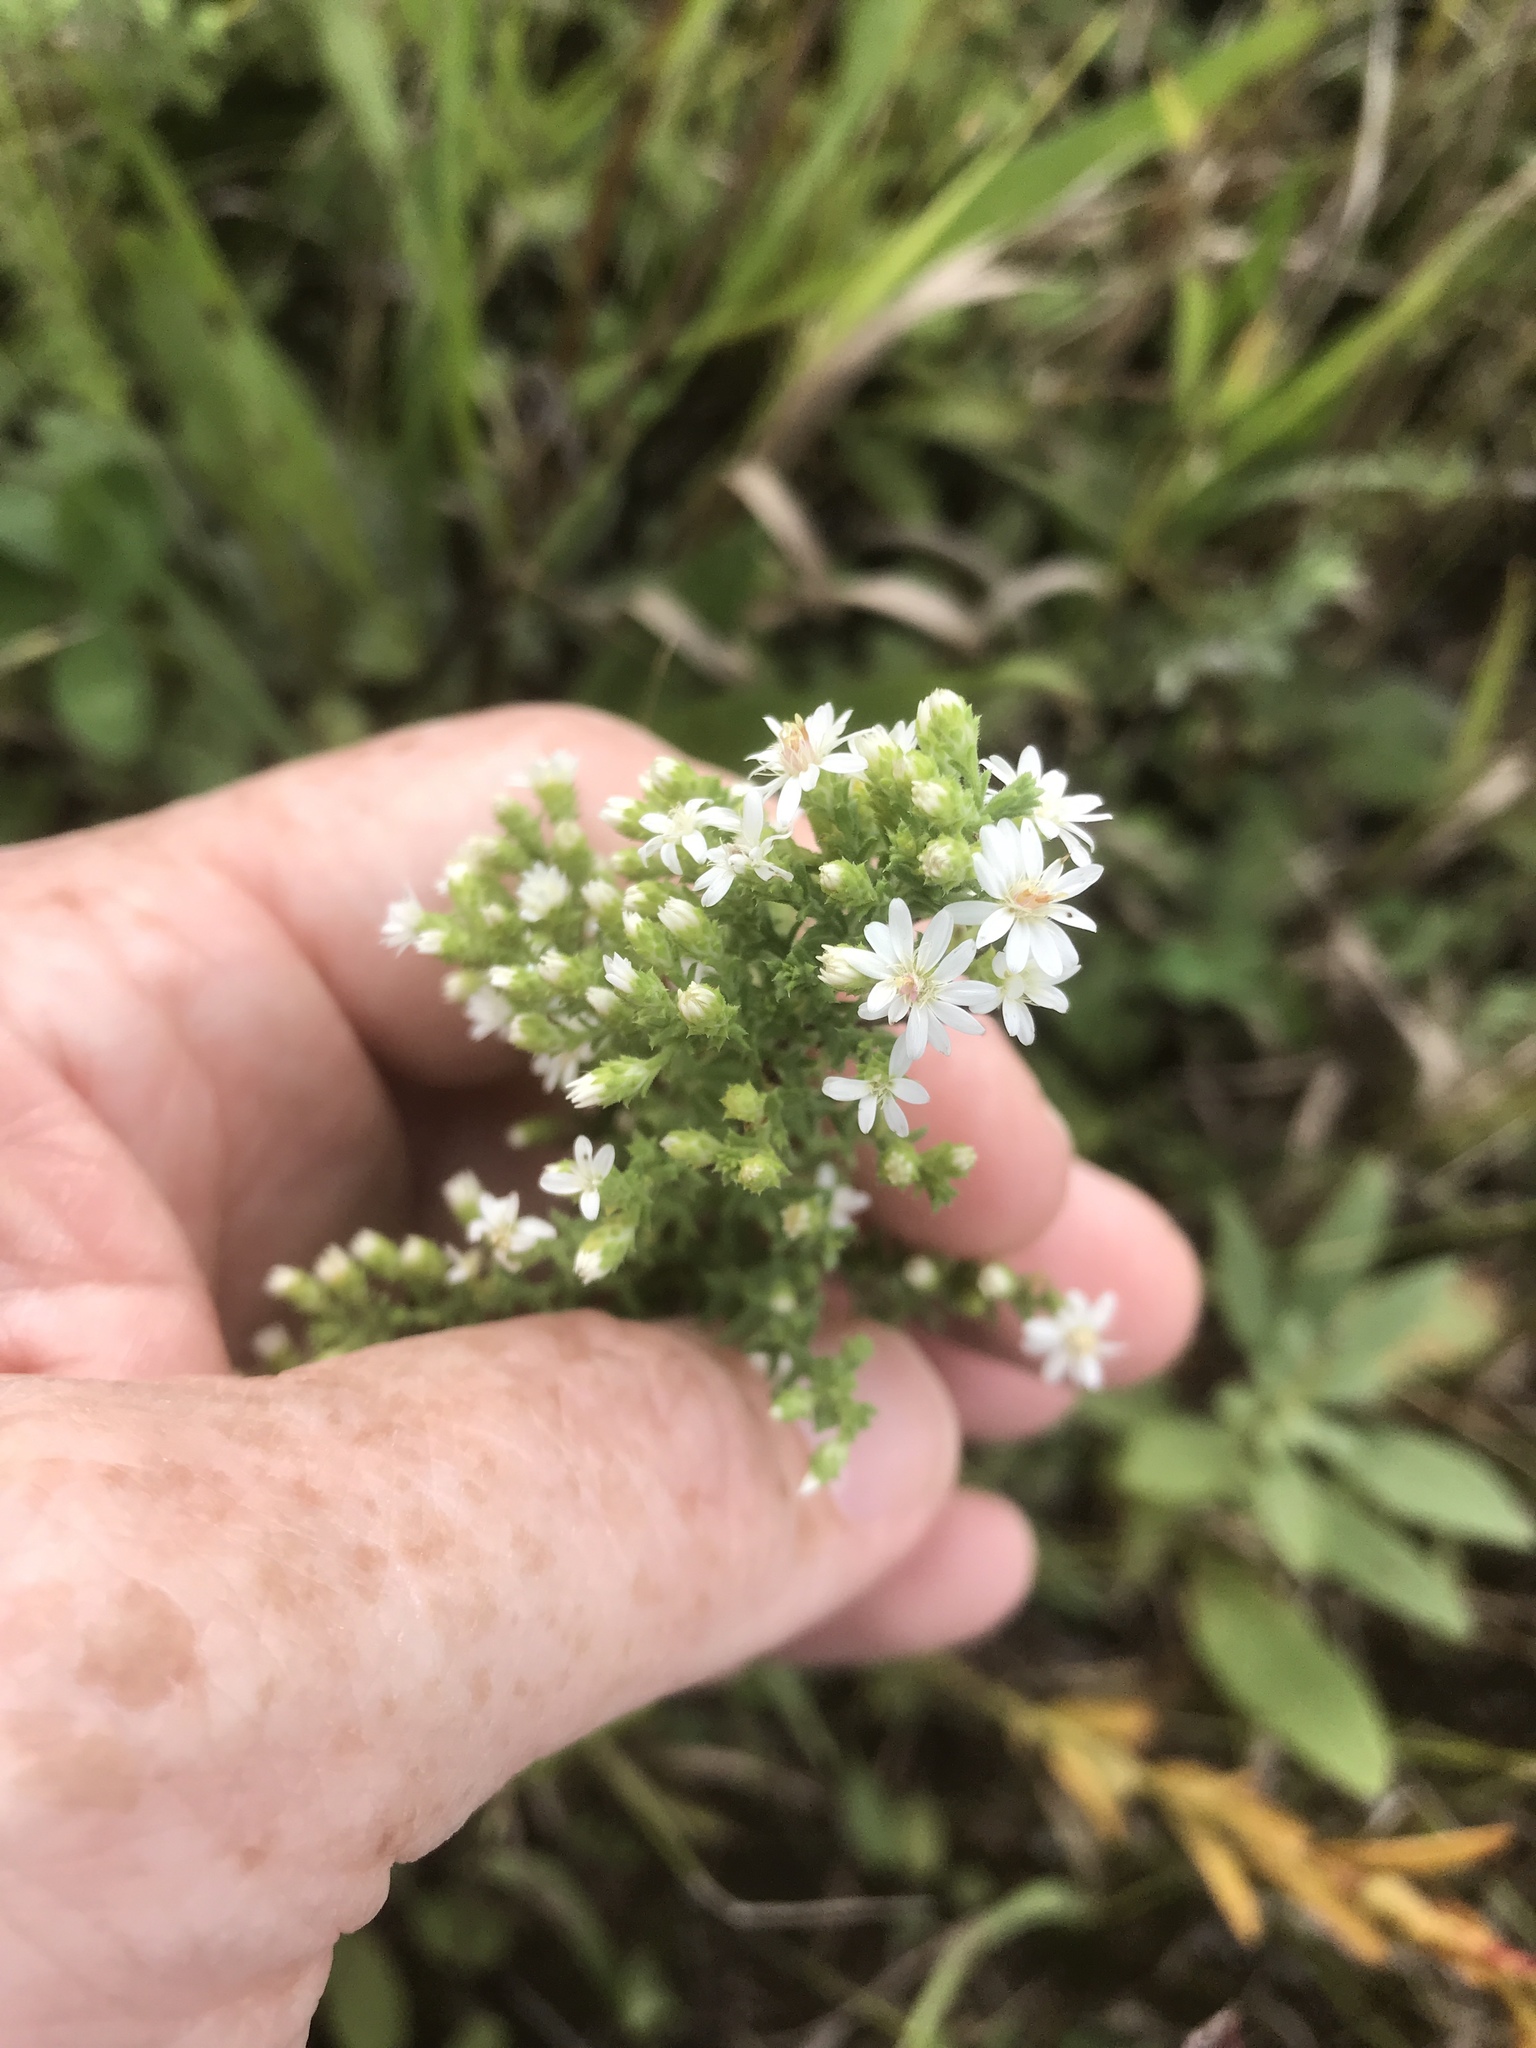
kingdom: Plantae
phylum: Tracheophyta
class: Magnoliopsida
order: Asterales
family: Asteraceae
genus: Symphyotrichum
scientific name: Symphyotrichum ericoides
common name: Heath aster
